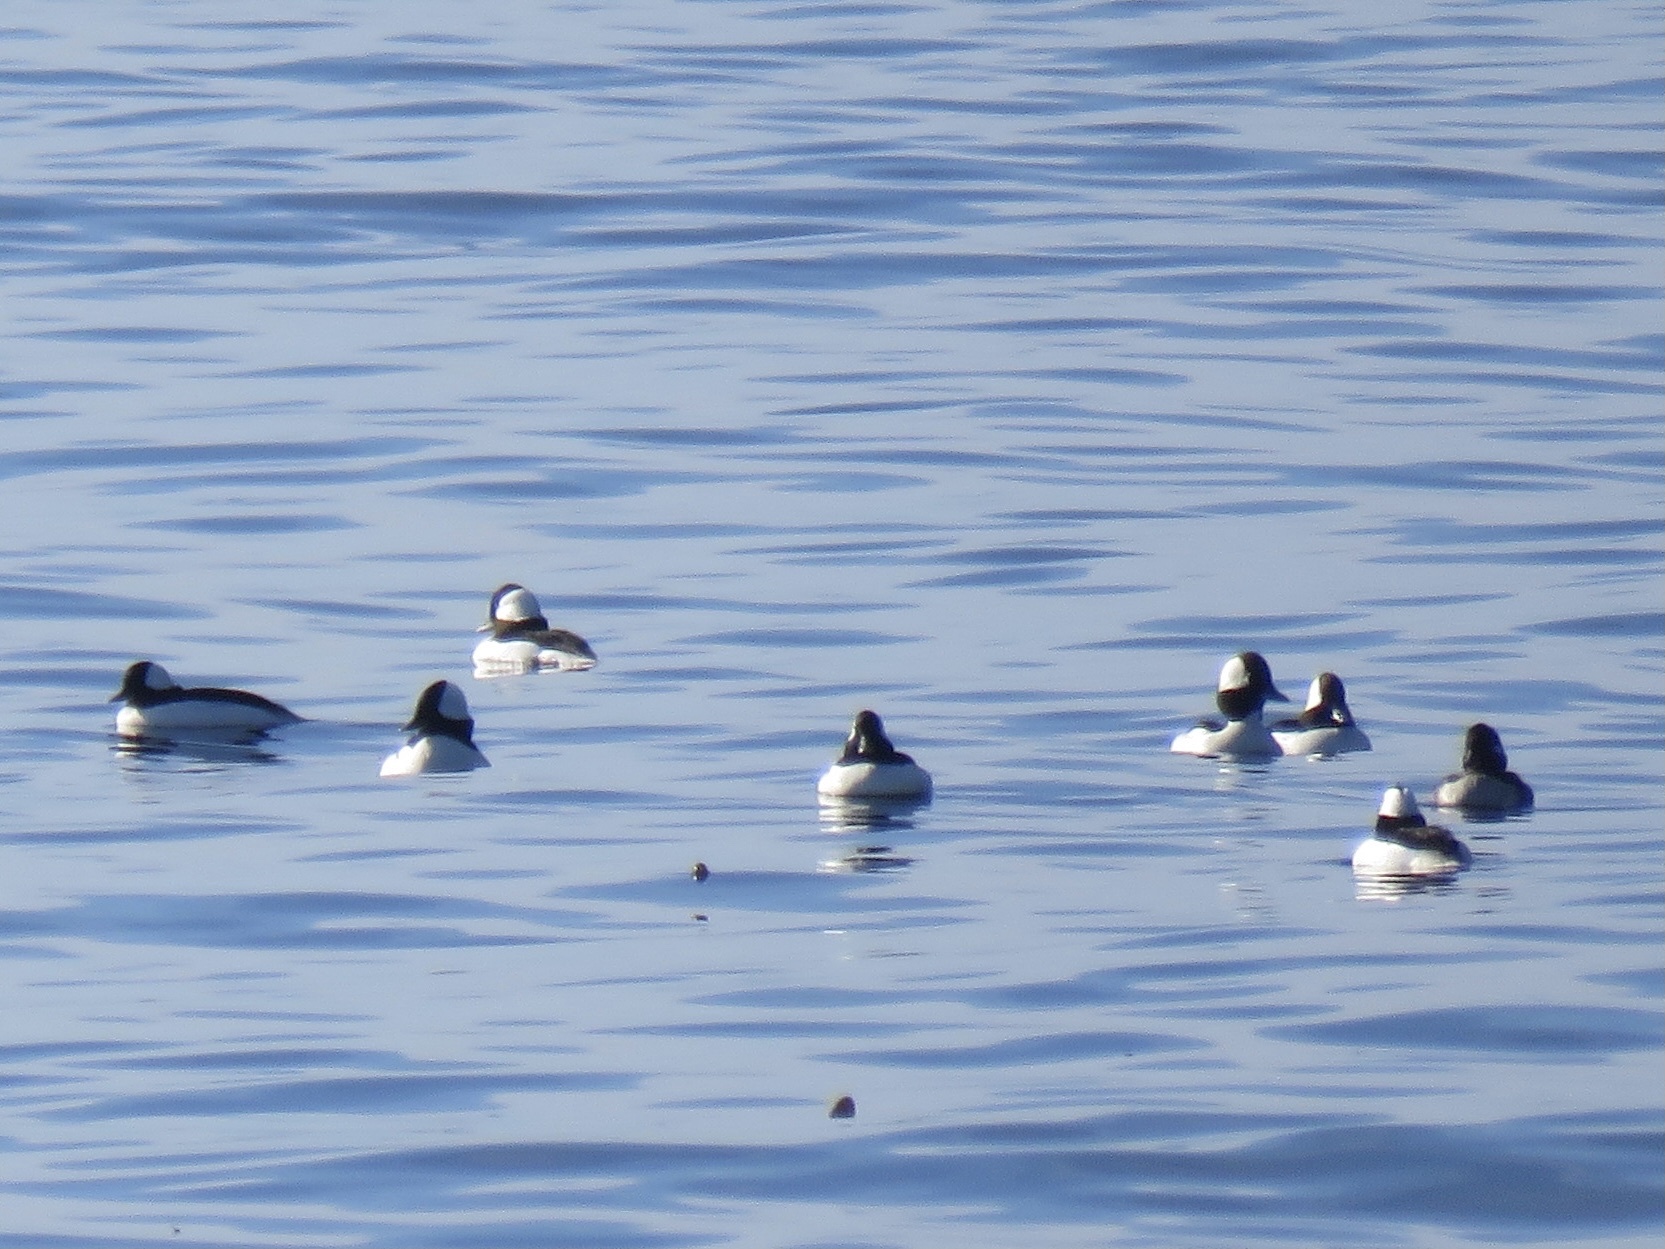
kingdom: Animalia
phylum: Chordata
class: Aves
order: Anseriformes
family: Anatidae
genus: Bucephala
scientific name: Bucephala albeola
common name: Bufflehead
